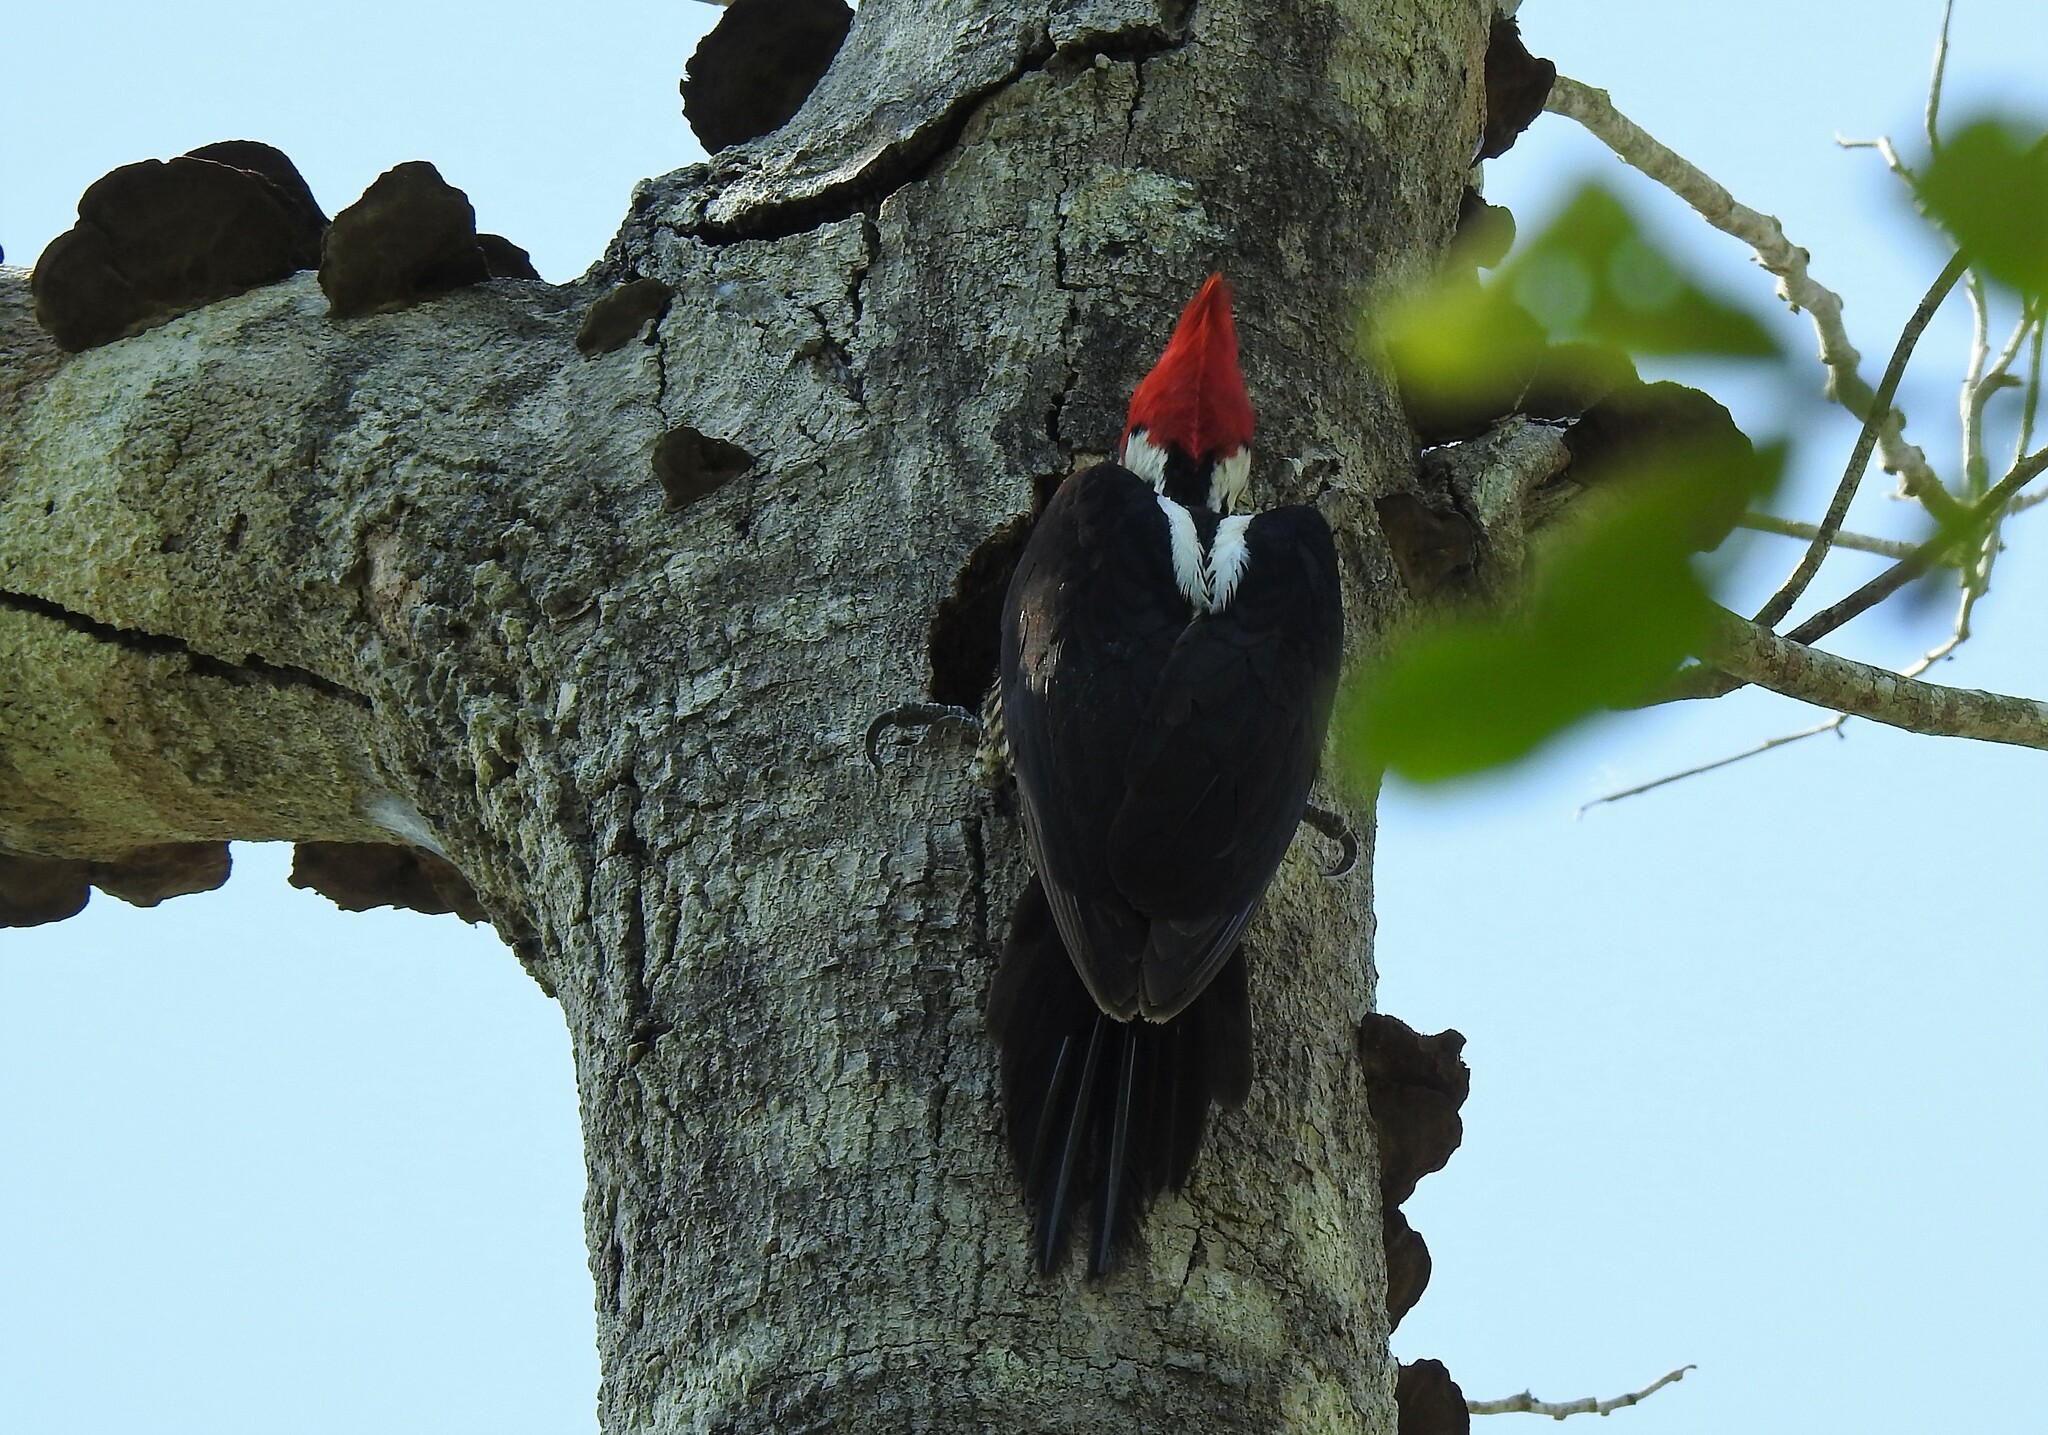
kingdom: Animalia
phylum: Chordata
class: Aves
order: Piciformes
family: Picidae
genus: Campephilus
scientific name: Campephilus melanoleucos
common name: Crimson-crested woodpecker
